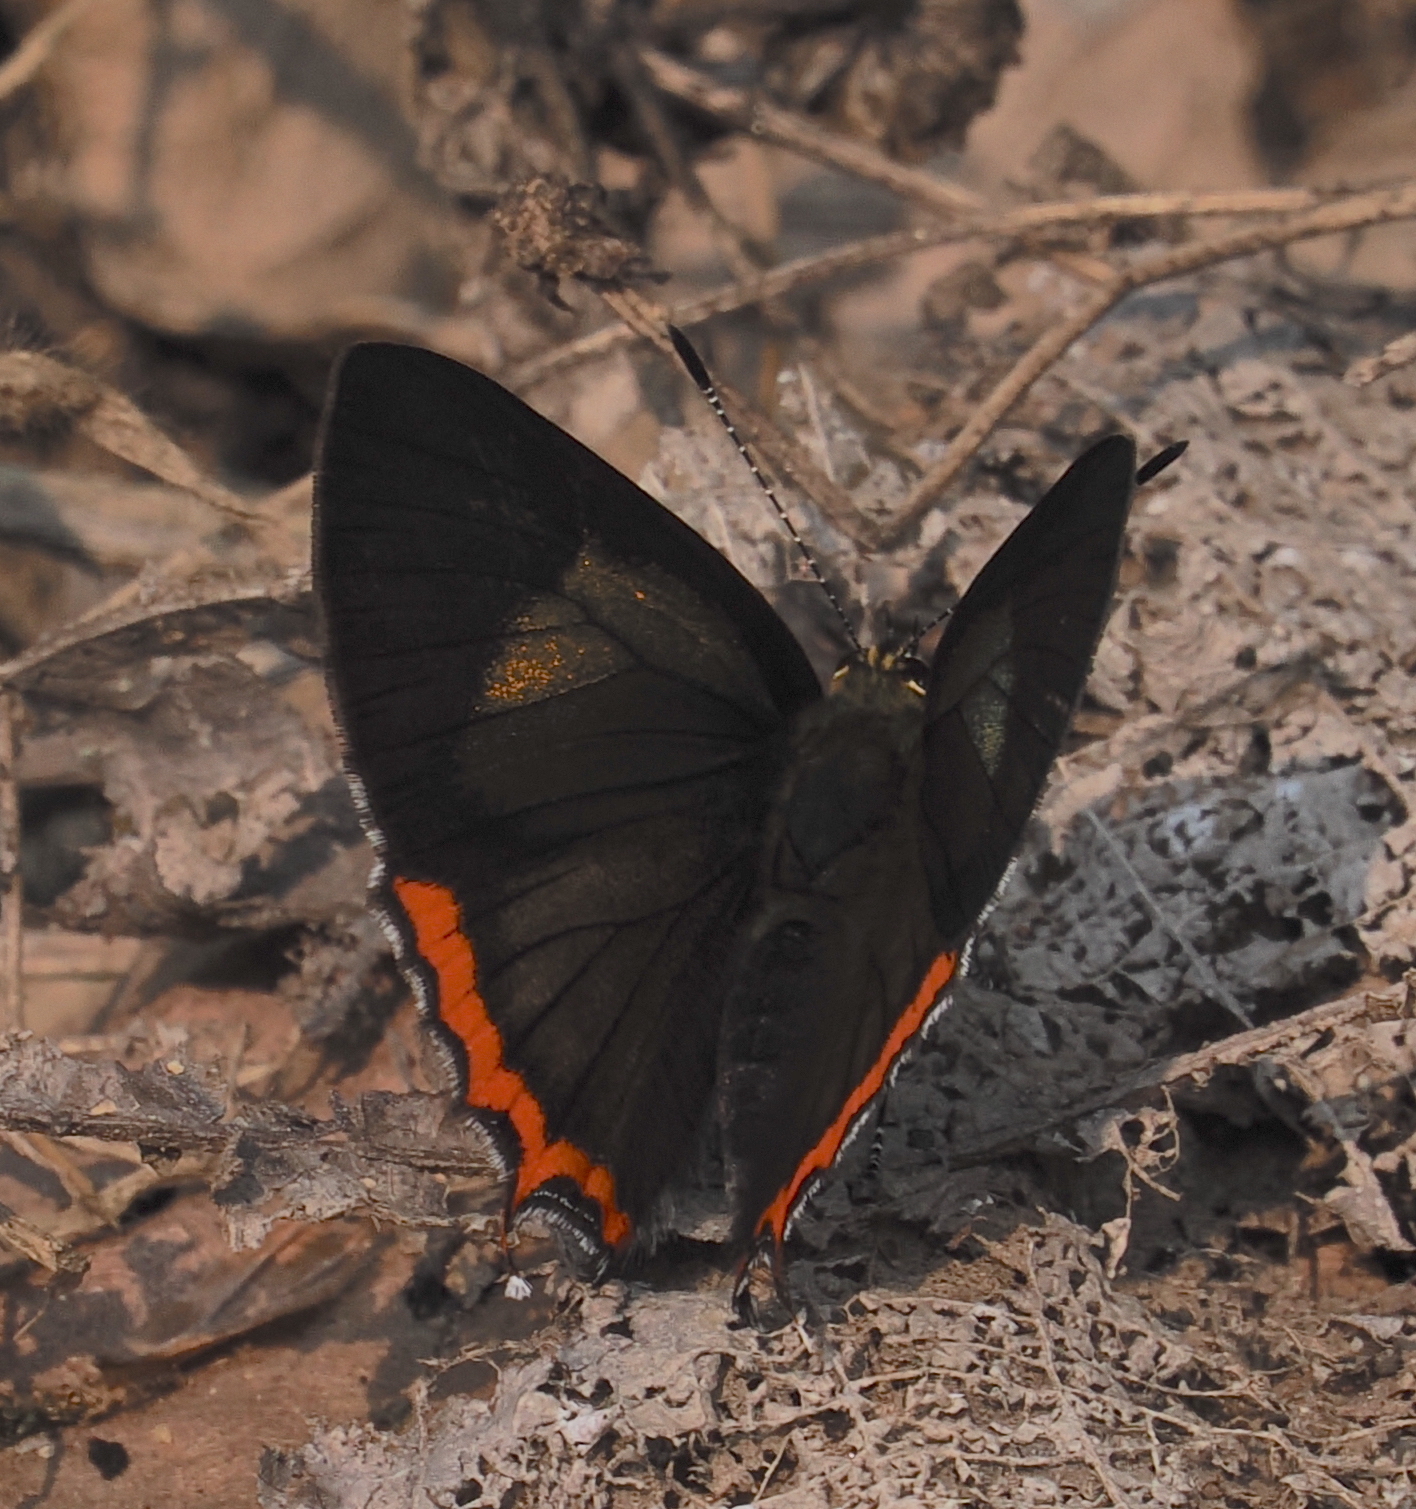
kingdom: Animalia
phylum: Arthropoda
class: Insecta
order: Lepidoptera
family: Lycaenidae
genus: Heliophorus
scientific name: Heliophorus brahma
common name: Golden sapphire
